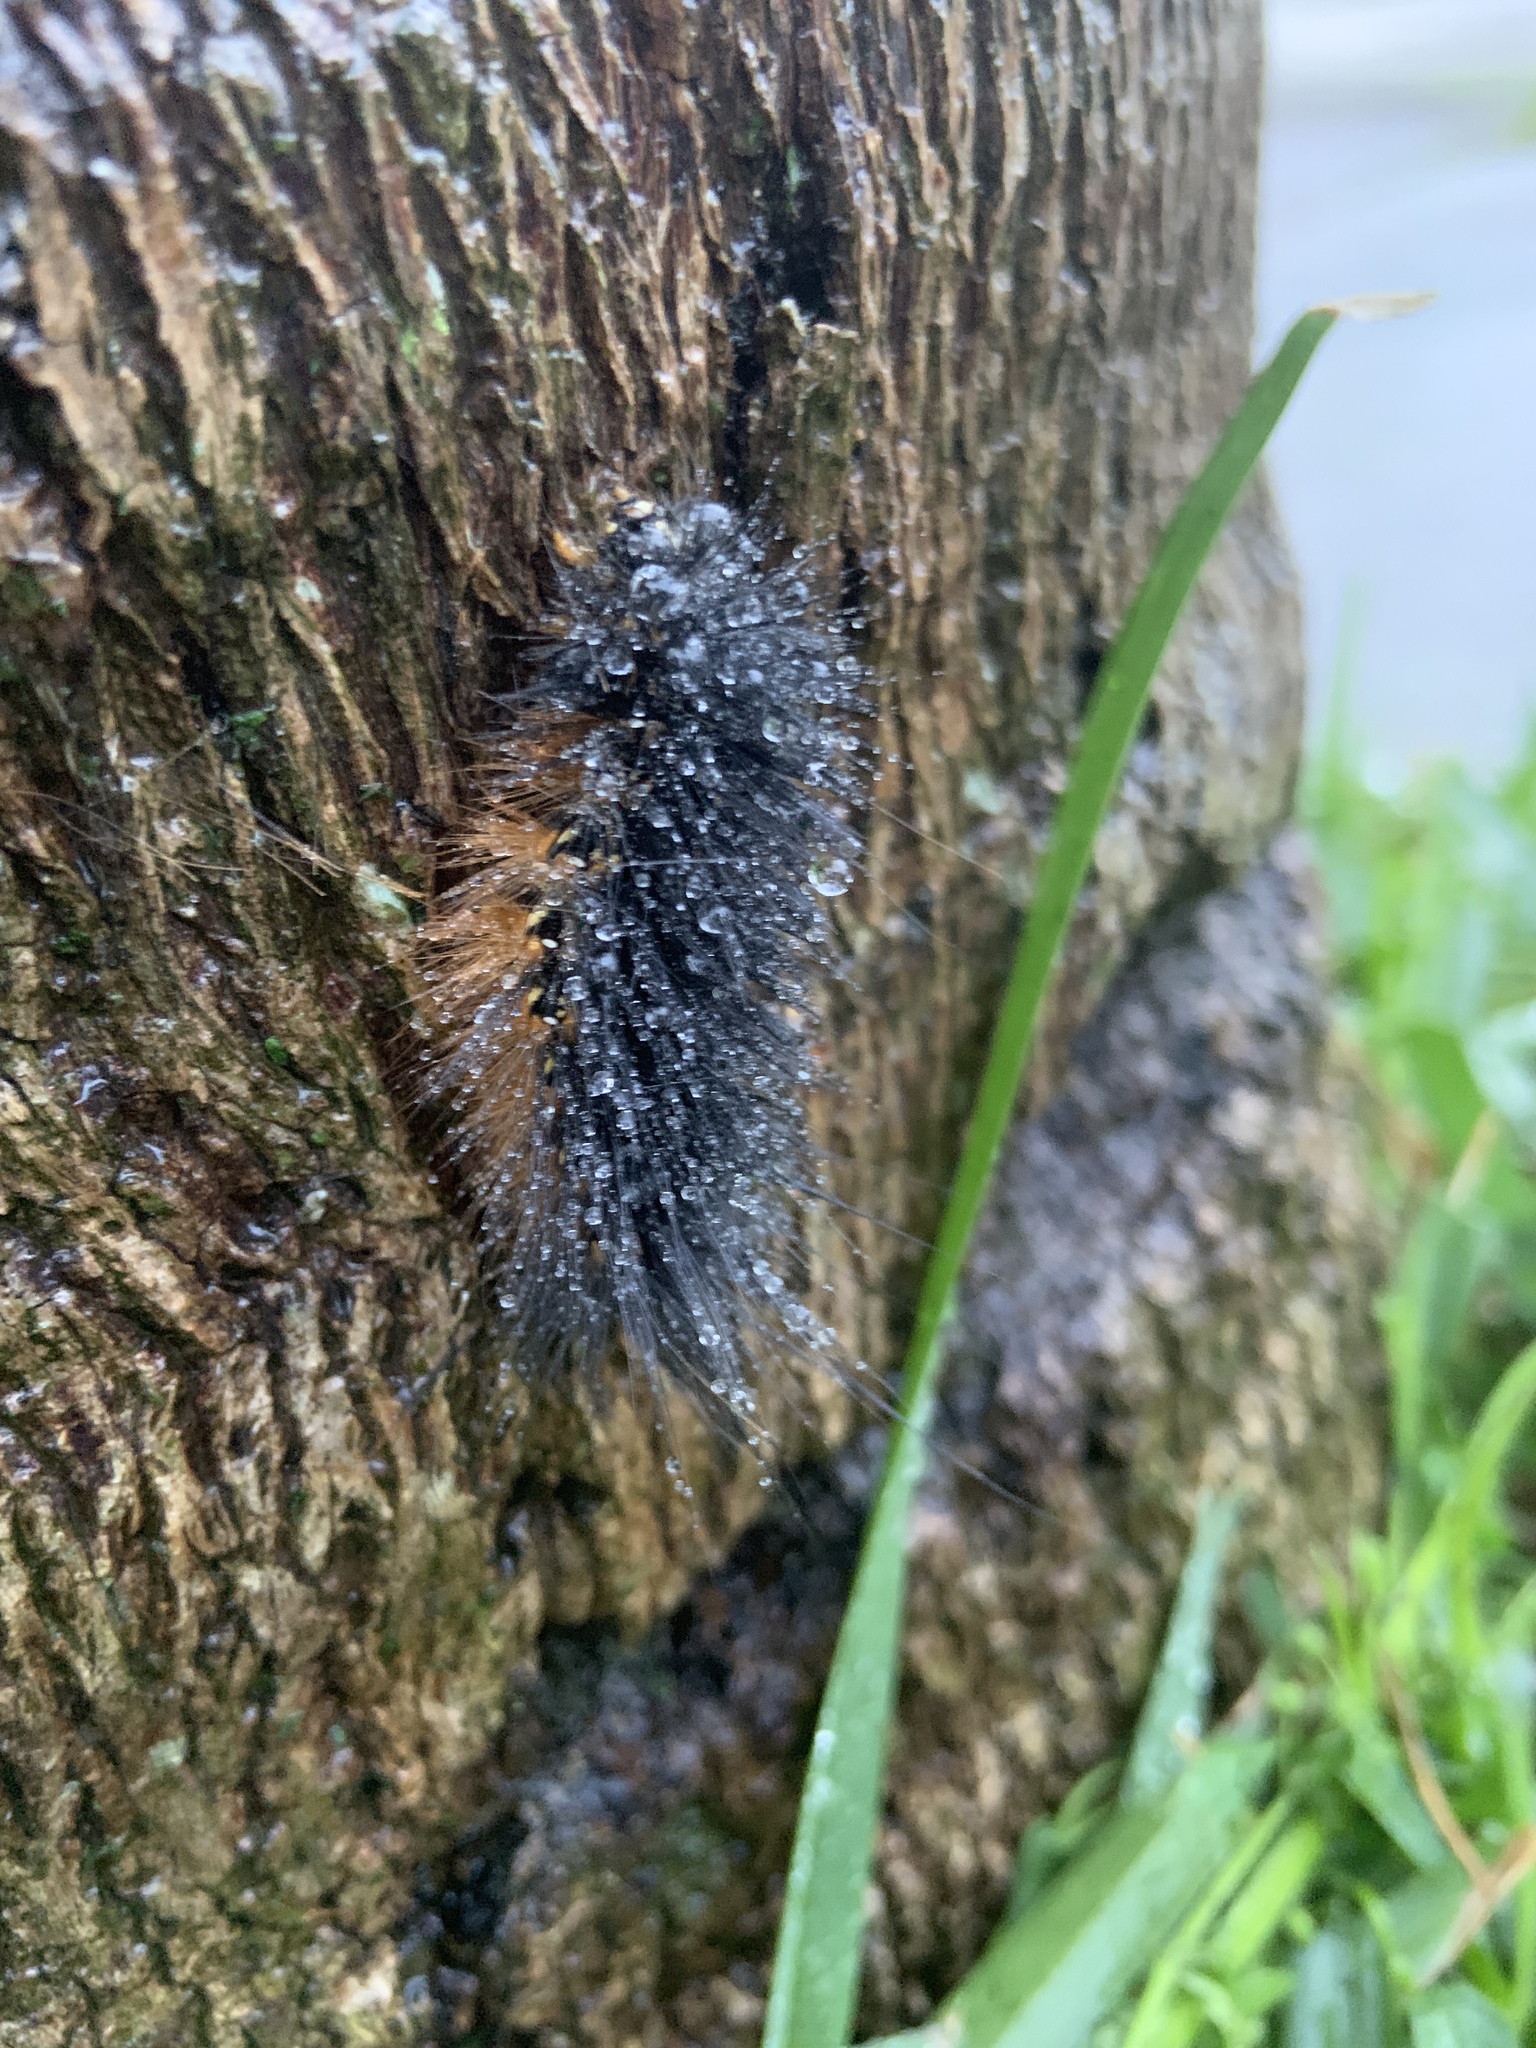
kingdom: Animalia
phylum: Arthropoda
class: Insecta
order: Lepidoptera
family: Erebidae
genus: Estigmene
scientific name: Estigmene acrea
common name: Salt marsh moth
